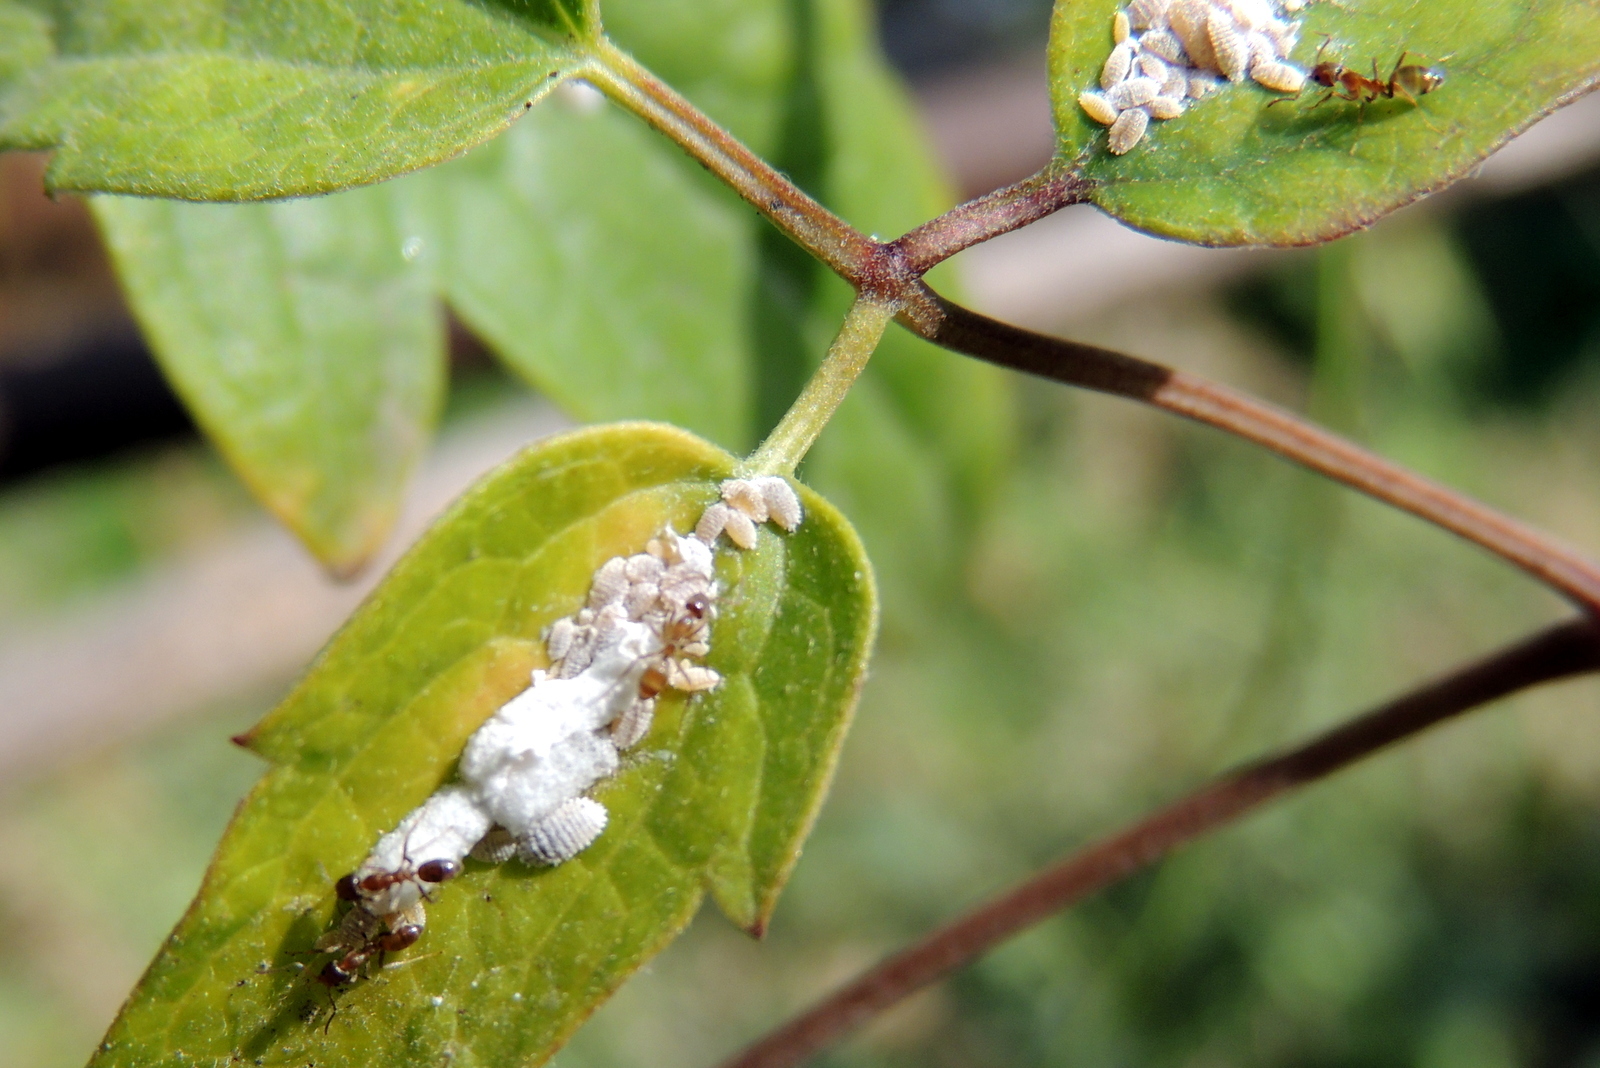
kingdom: Animalia
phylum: Arthropoda
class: Insecta
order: Hymenoptera
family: Formicidae
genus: Linepithema
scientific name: Linepithema humile
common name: Argentine ant
